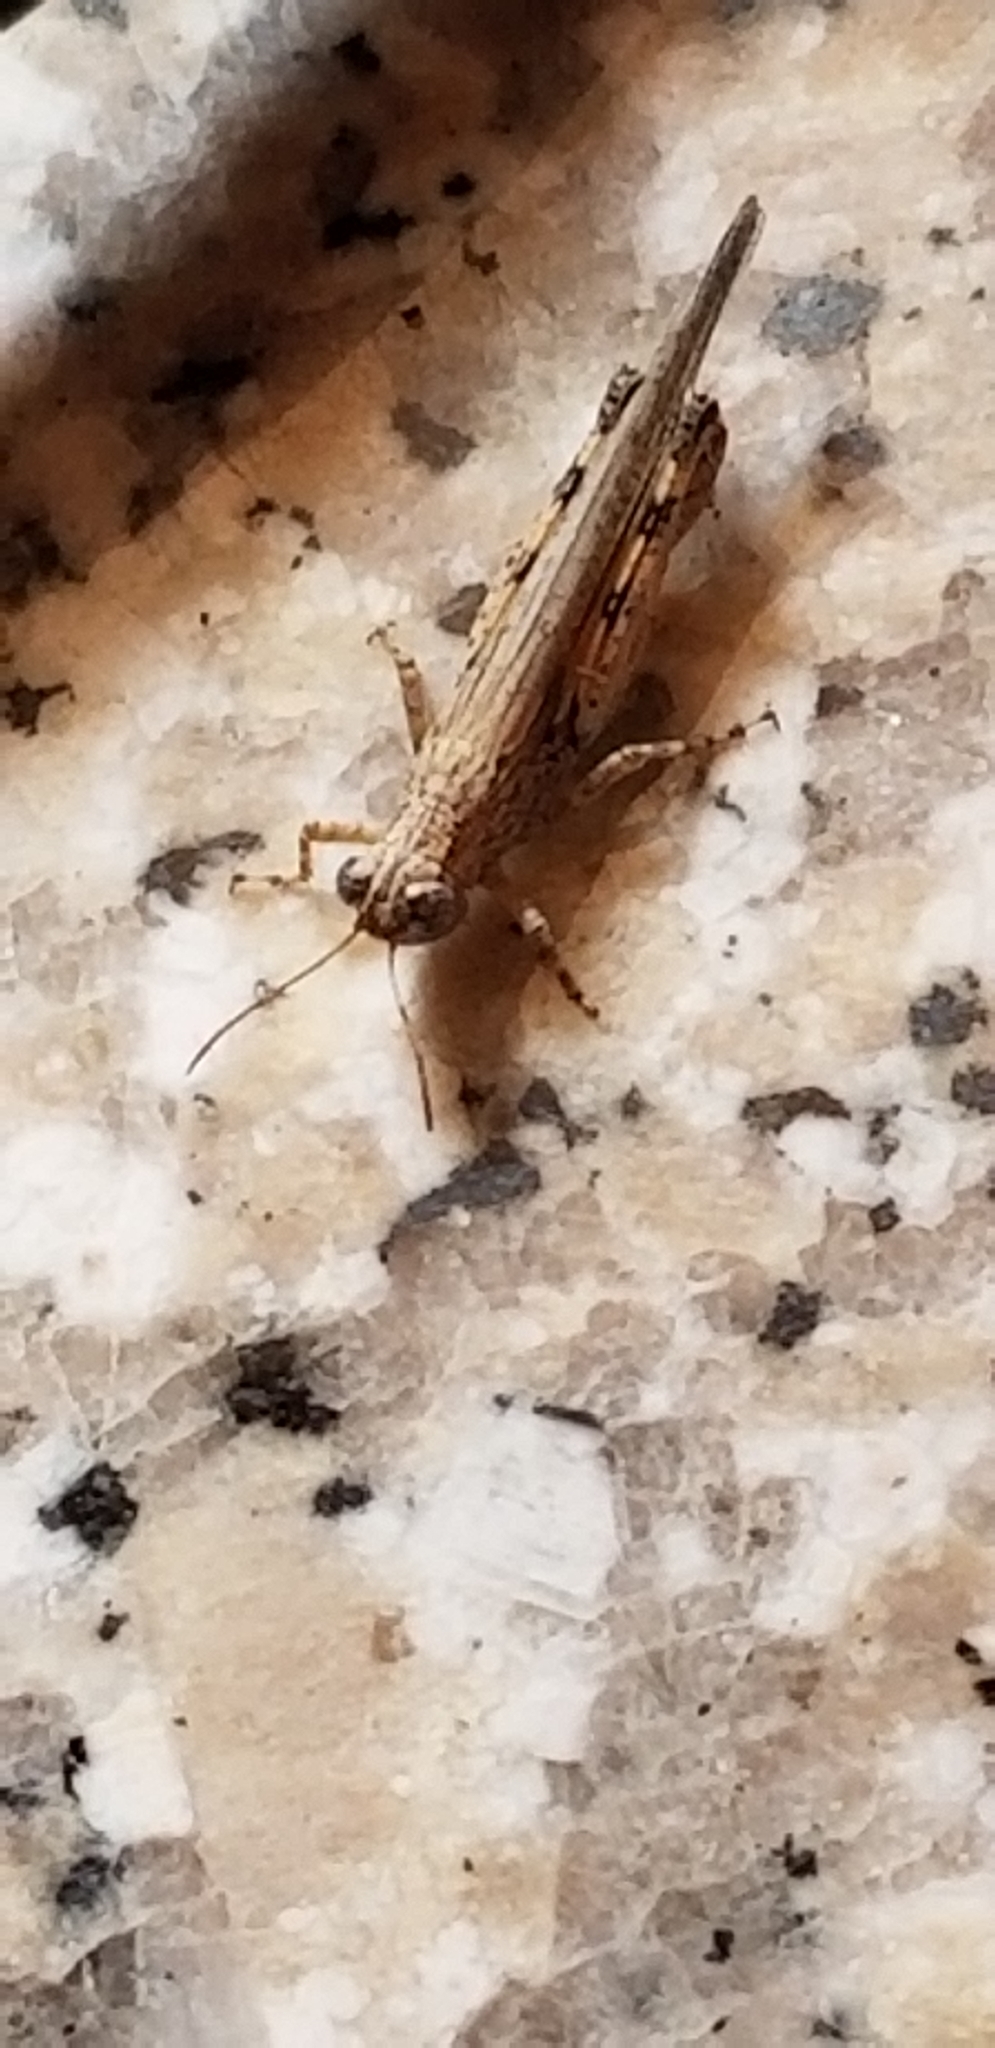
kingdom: Animalia
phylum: Arthropoda
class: Insecta
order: Orthoptera
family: Acrididae
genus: Ligurotettix
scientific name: Ligurotettix coquilletti
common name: Desert clicker grasshopper
